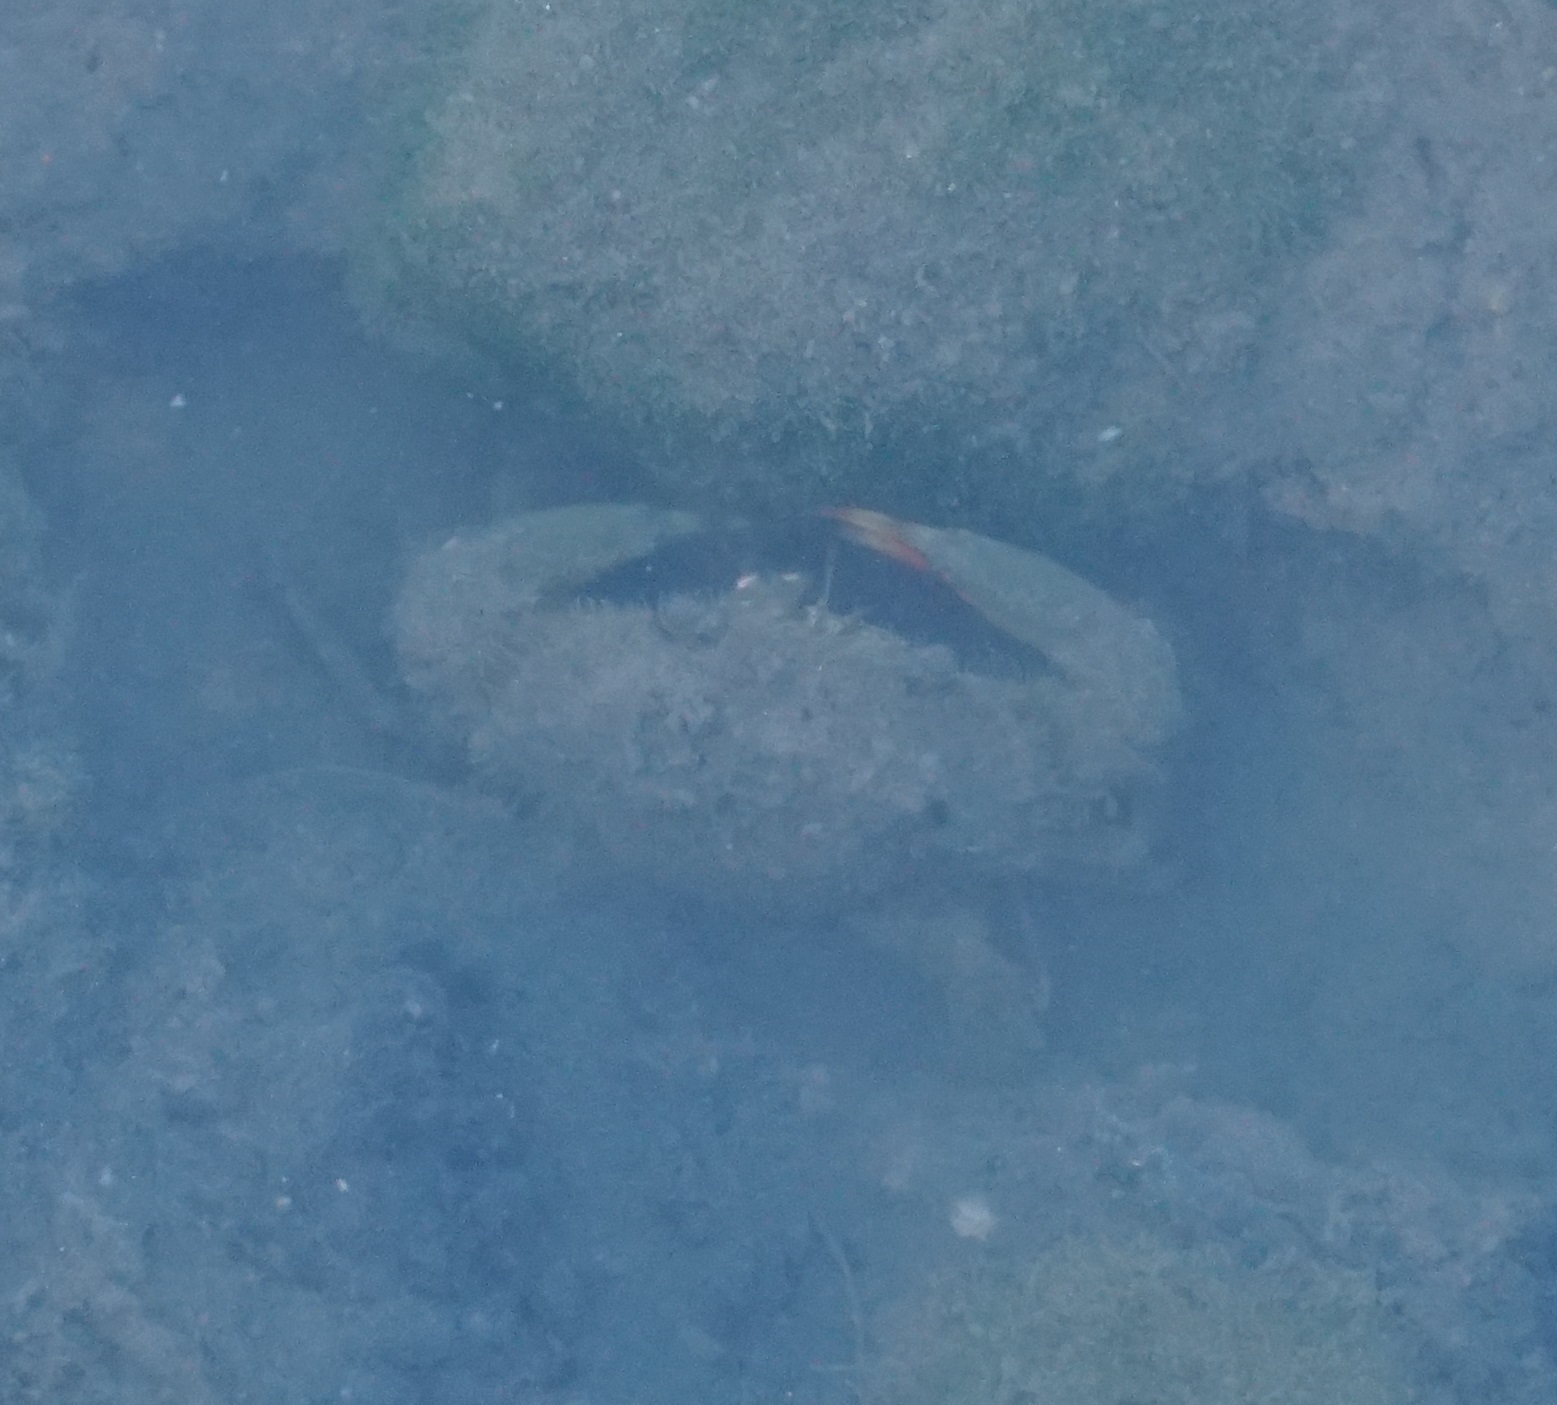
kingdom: Animalia
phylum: Arthropoda
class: Malacostraca
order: Decapoda
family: Portunidae
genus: Scylla
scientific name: Scylla serrata
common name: Giant mud crab
